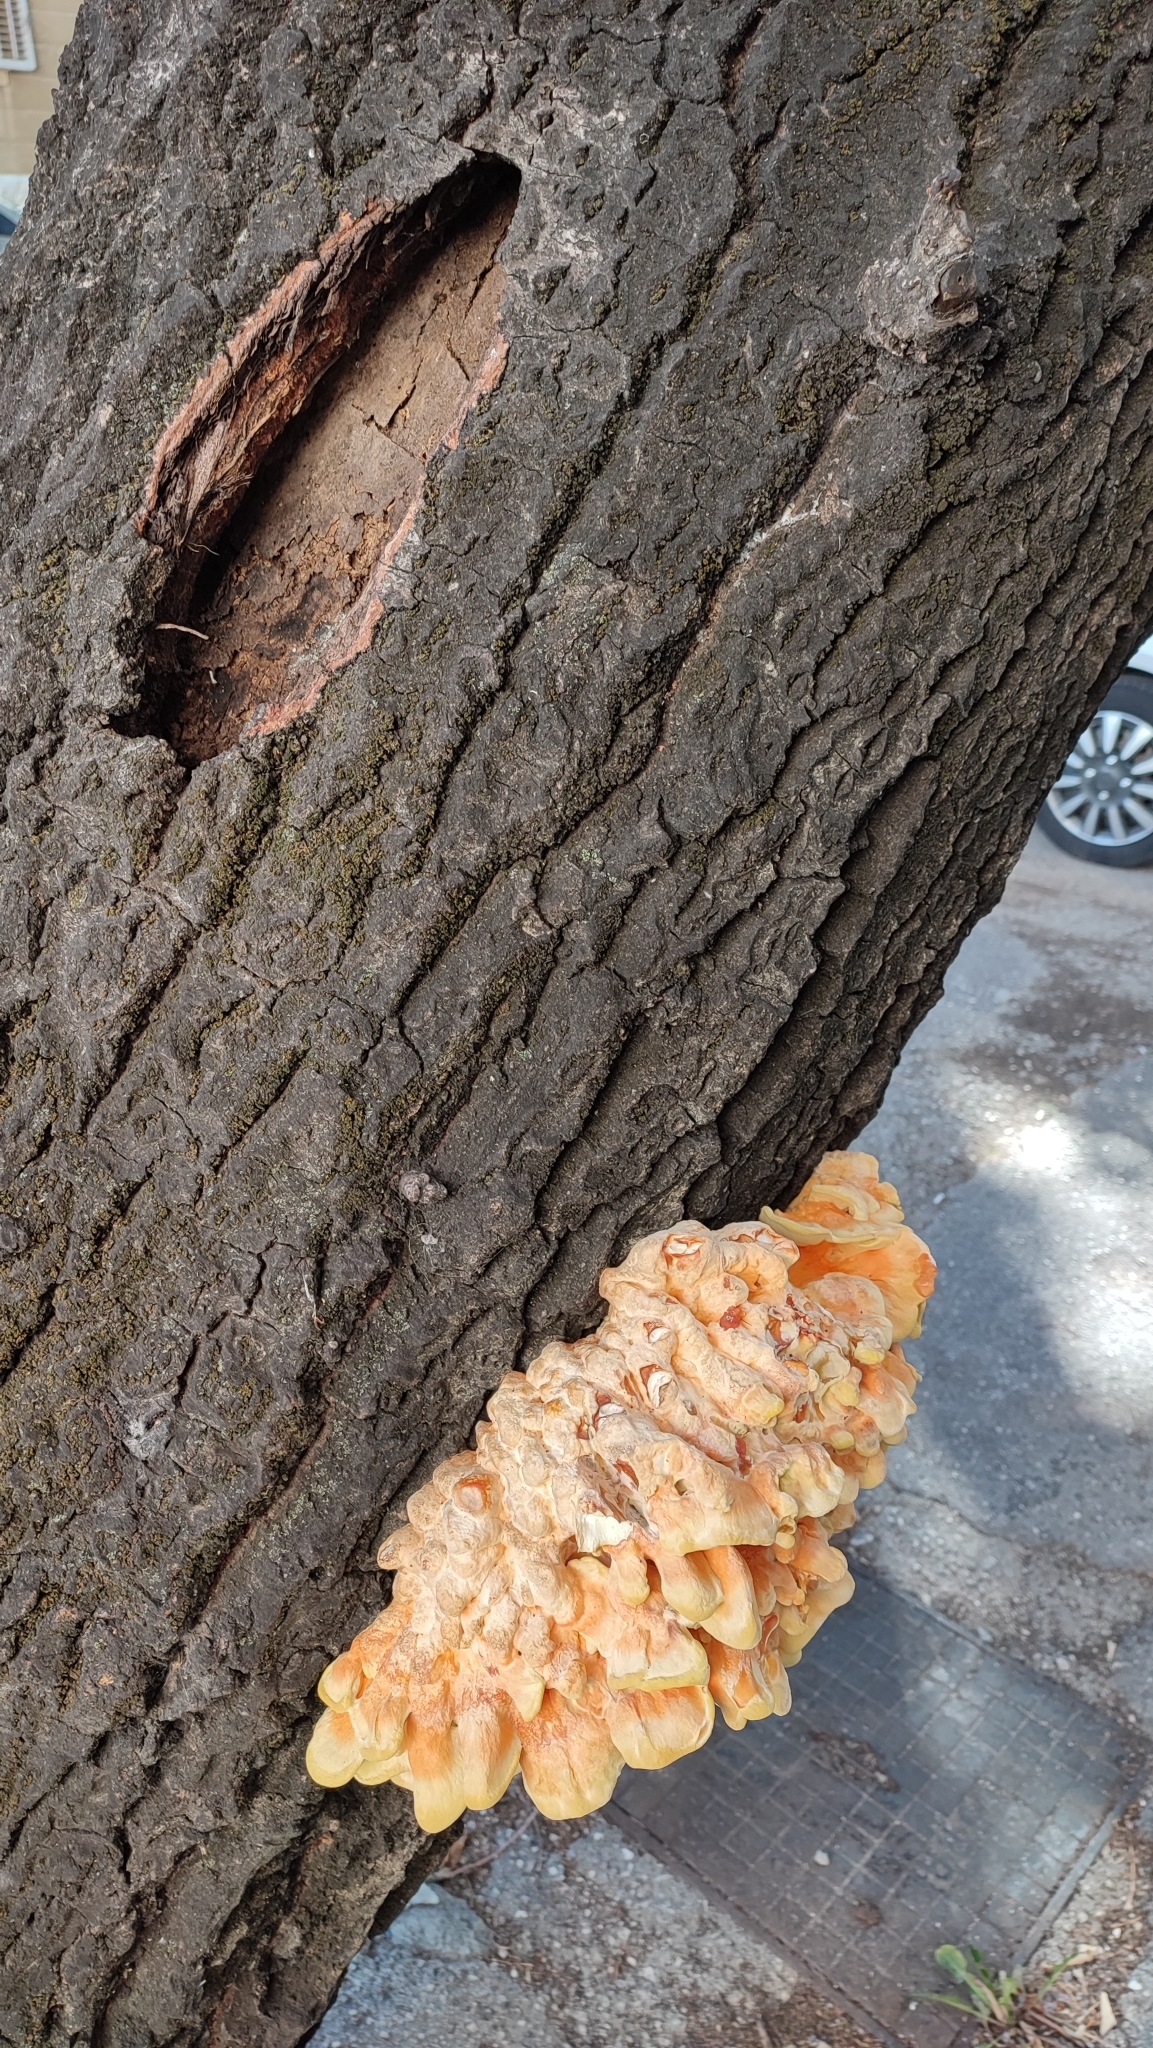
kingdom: Fungi
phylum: Basidiomycota
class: Agaricomycetes
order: Polyporales
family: Laetiporaceae
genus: Laetiporus
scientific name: Laetiporus sulphureus
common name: Chicken of the woods
